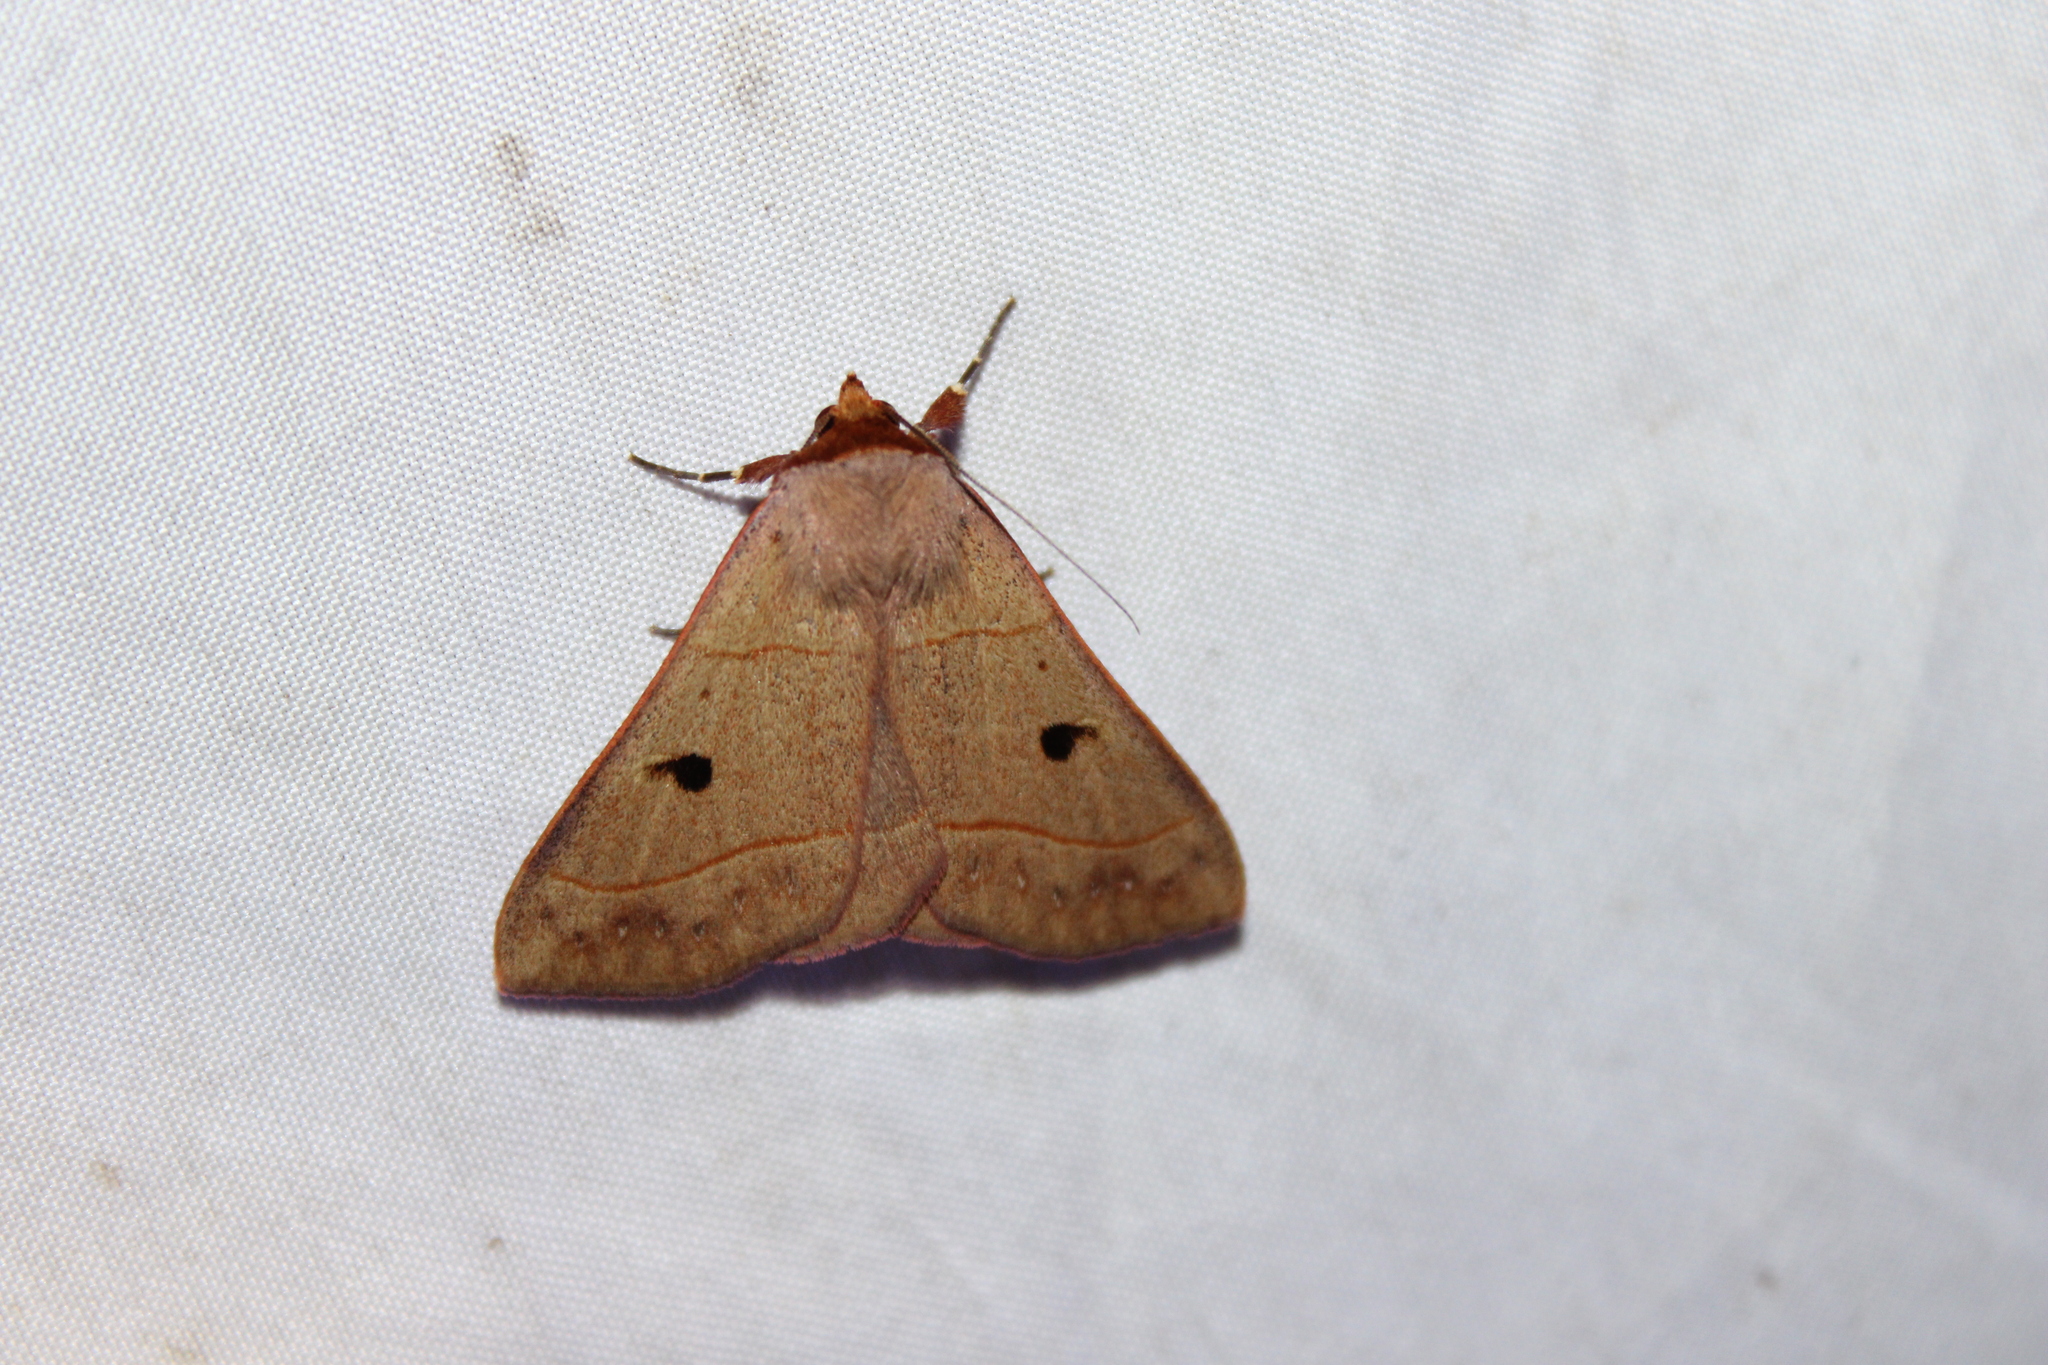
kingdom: Animalia
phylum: Arthropoda
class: Insecta
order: Lepidoptera
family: Erebidae
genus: Panopoda
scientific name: Panopoda rufimargo
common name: Red-lined panopoda moth
